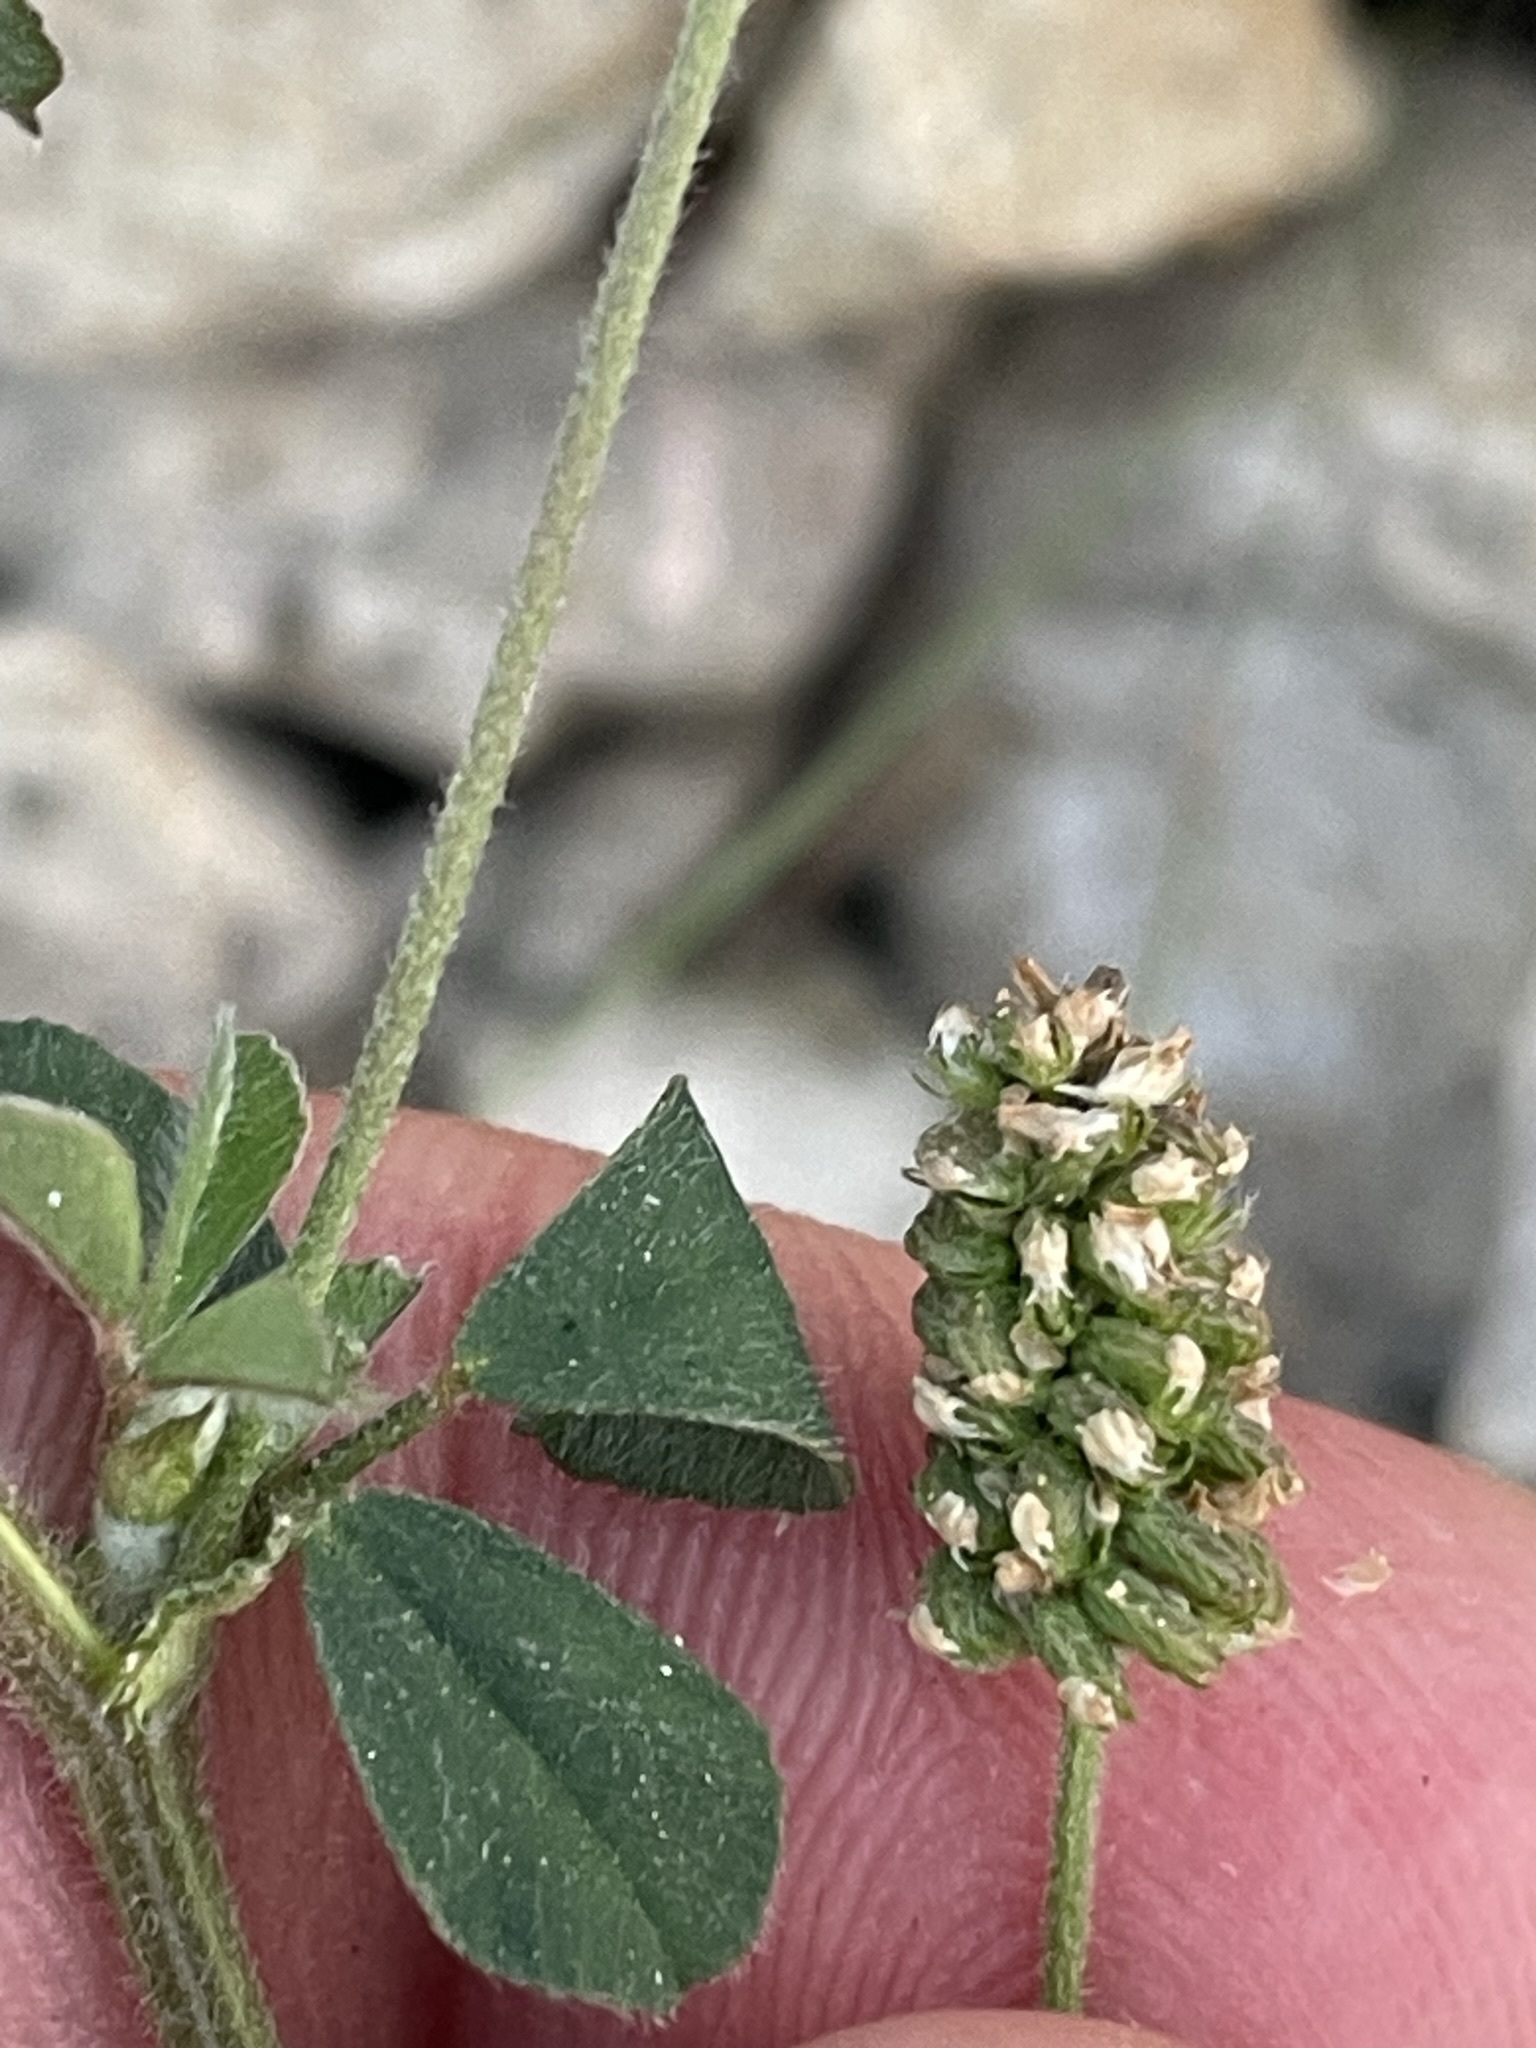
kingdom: Plantae
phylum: Tracheophyta
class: Magnoliopsida
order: Fabales
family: Fabaceae
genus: Medicago
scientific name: Medicago lupulina
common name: Black medick
